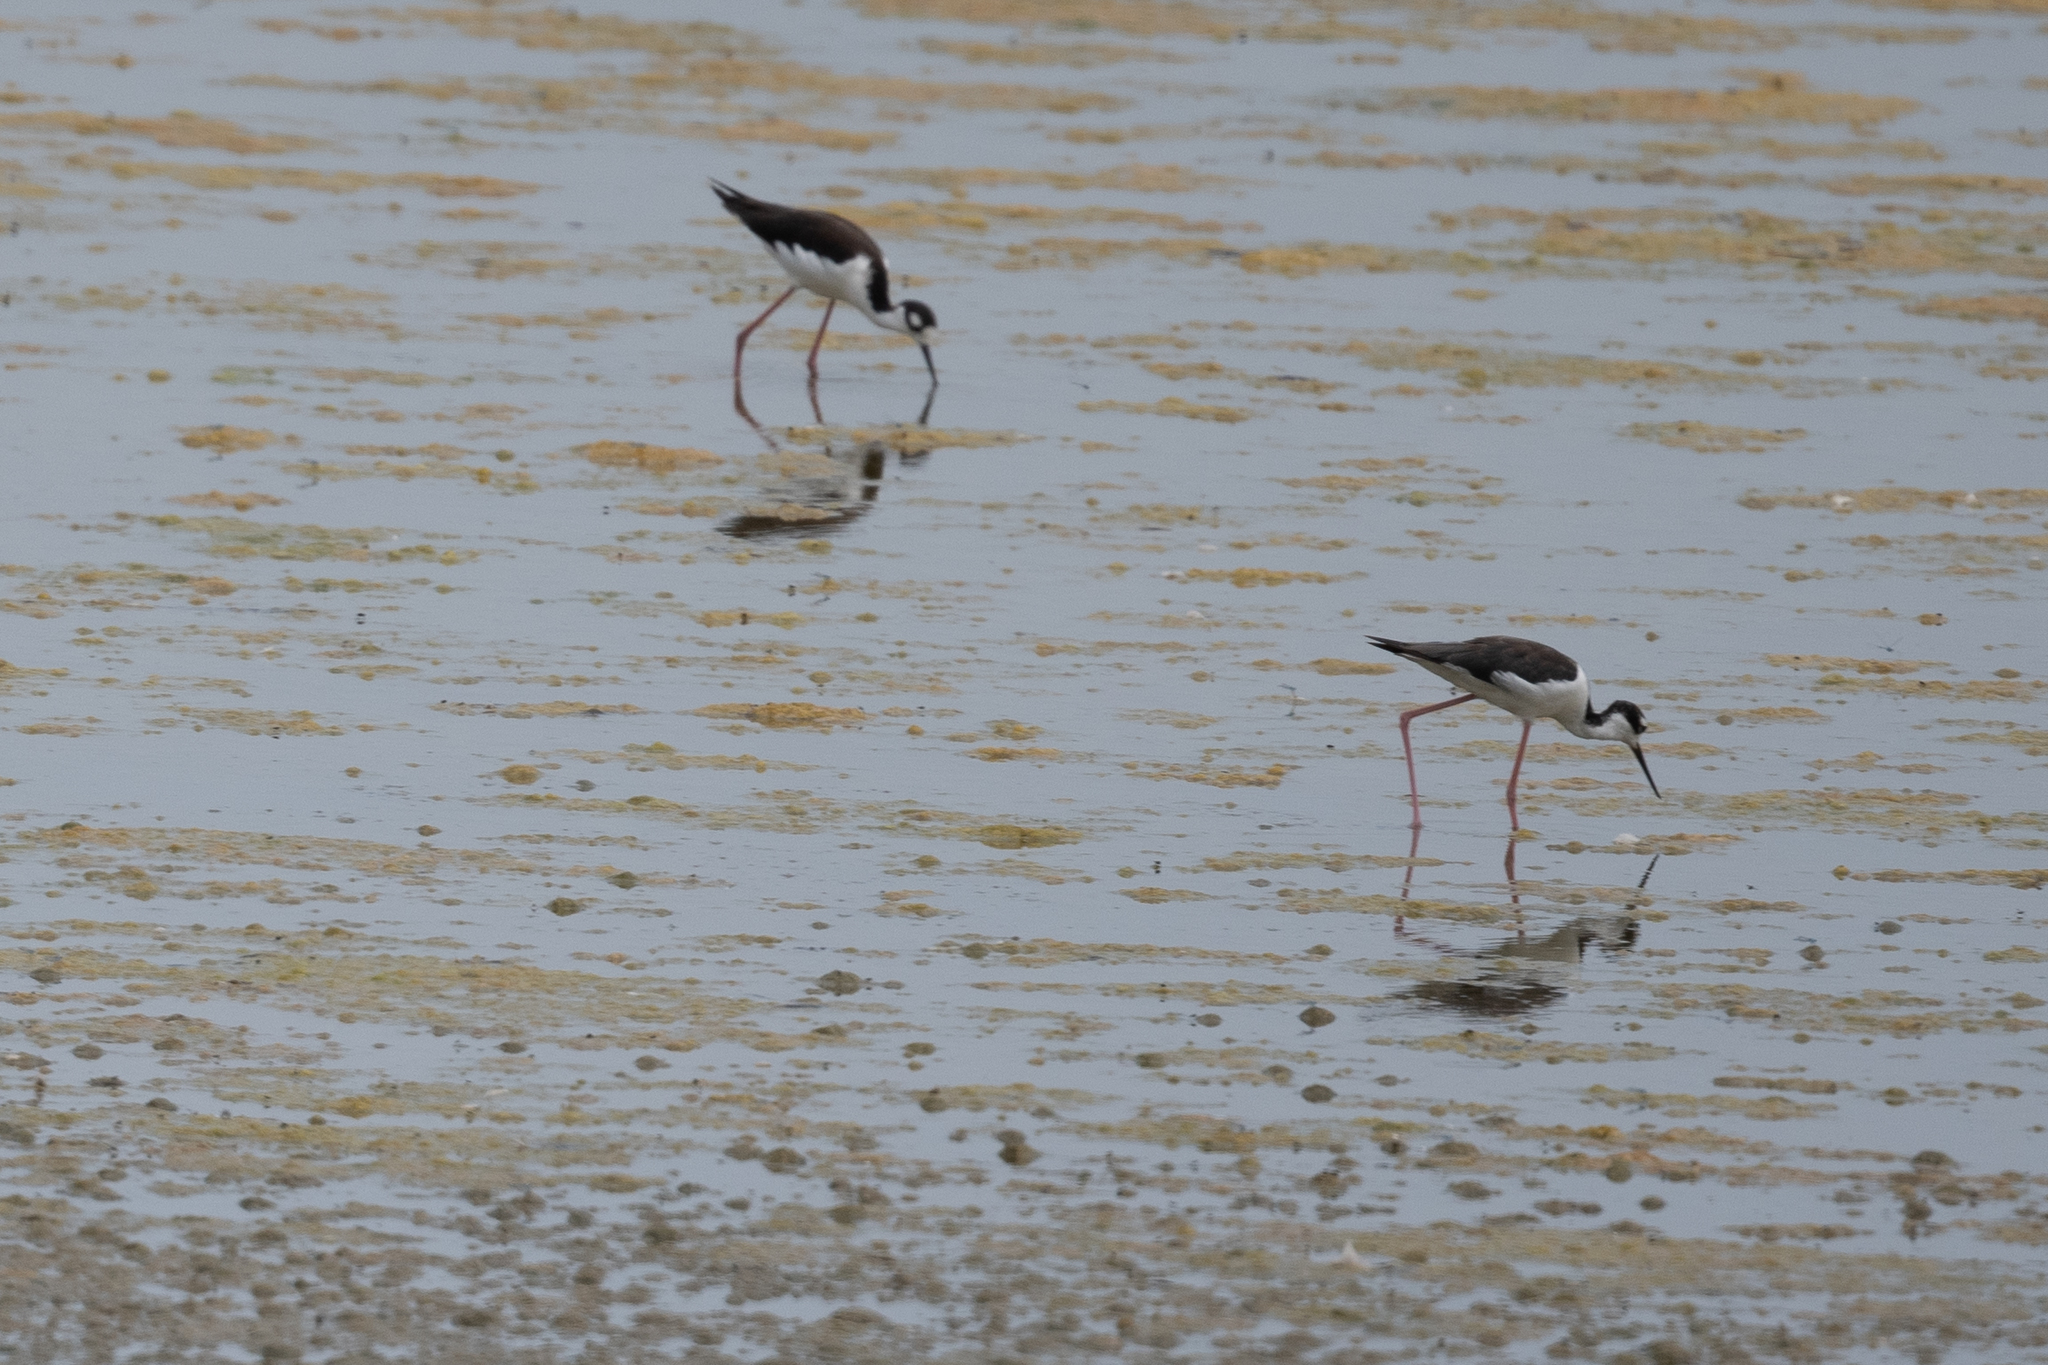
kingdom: Animalia
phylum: Chordata
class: Aves
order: Charadriiformes
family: Recurvirostridae
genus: Himantopus
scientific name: Himantopus mexicanus
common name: Black-necked stilt
